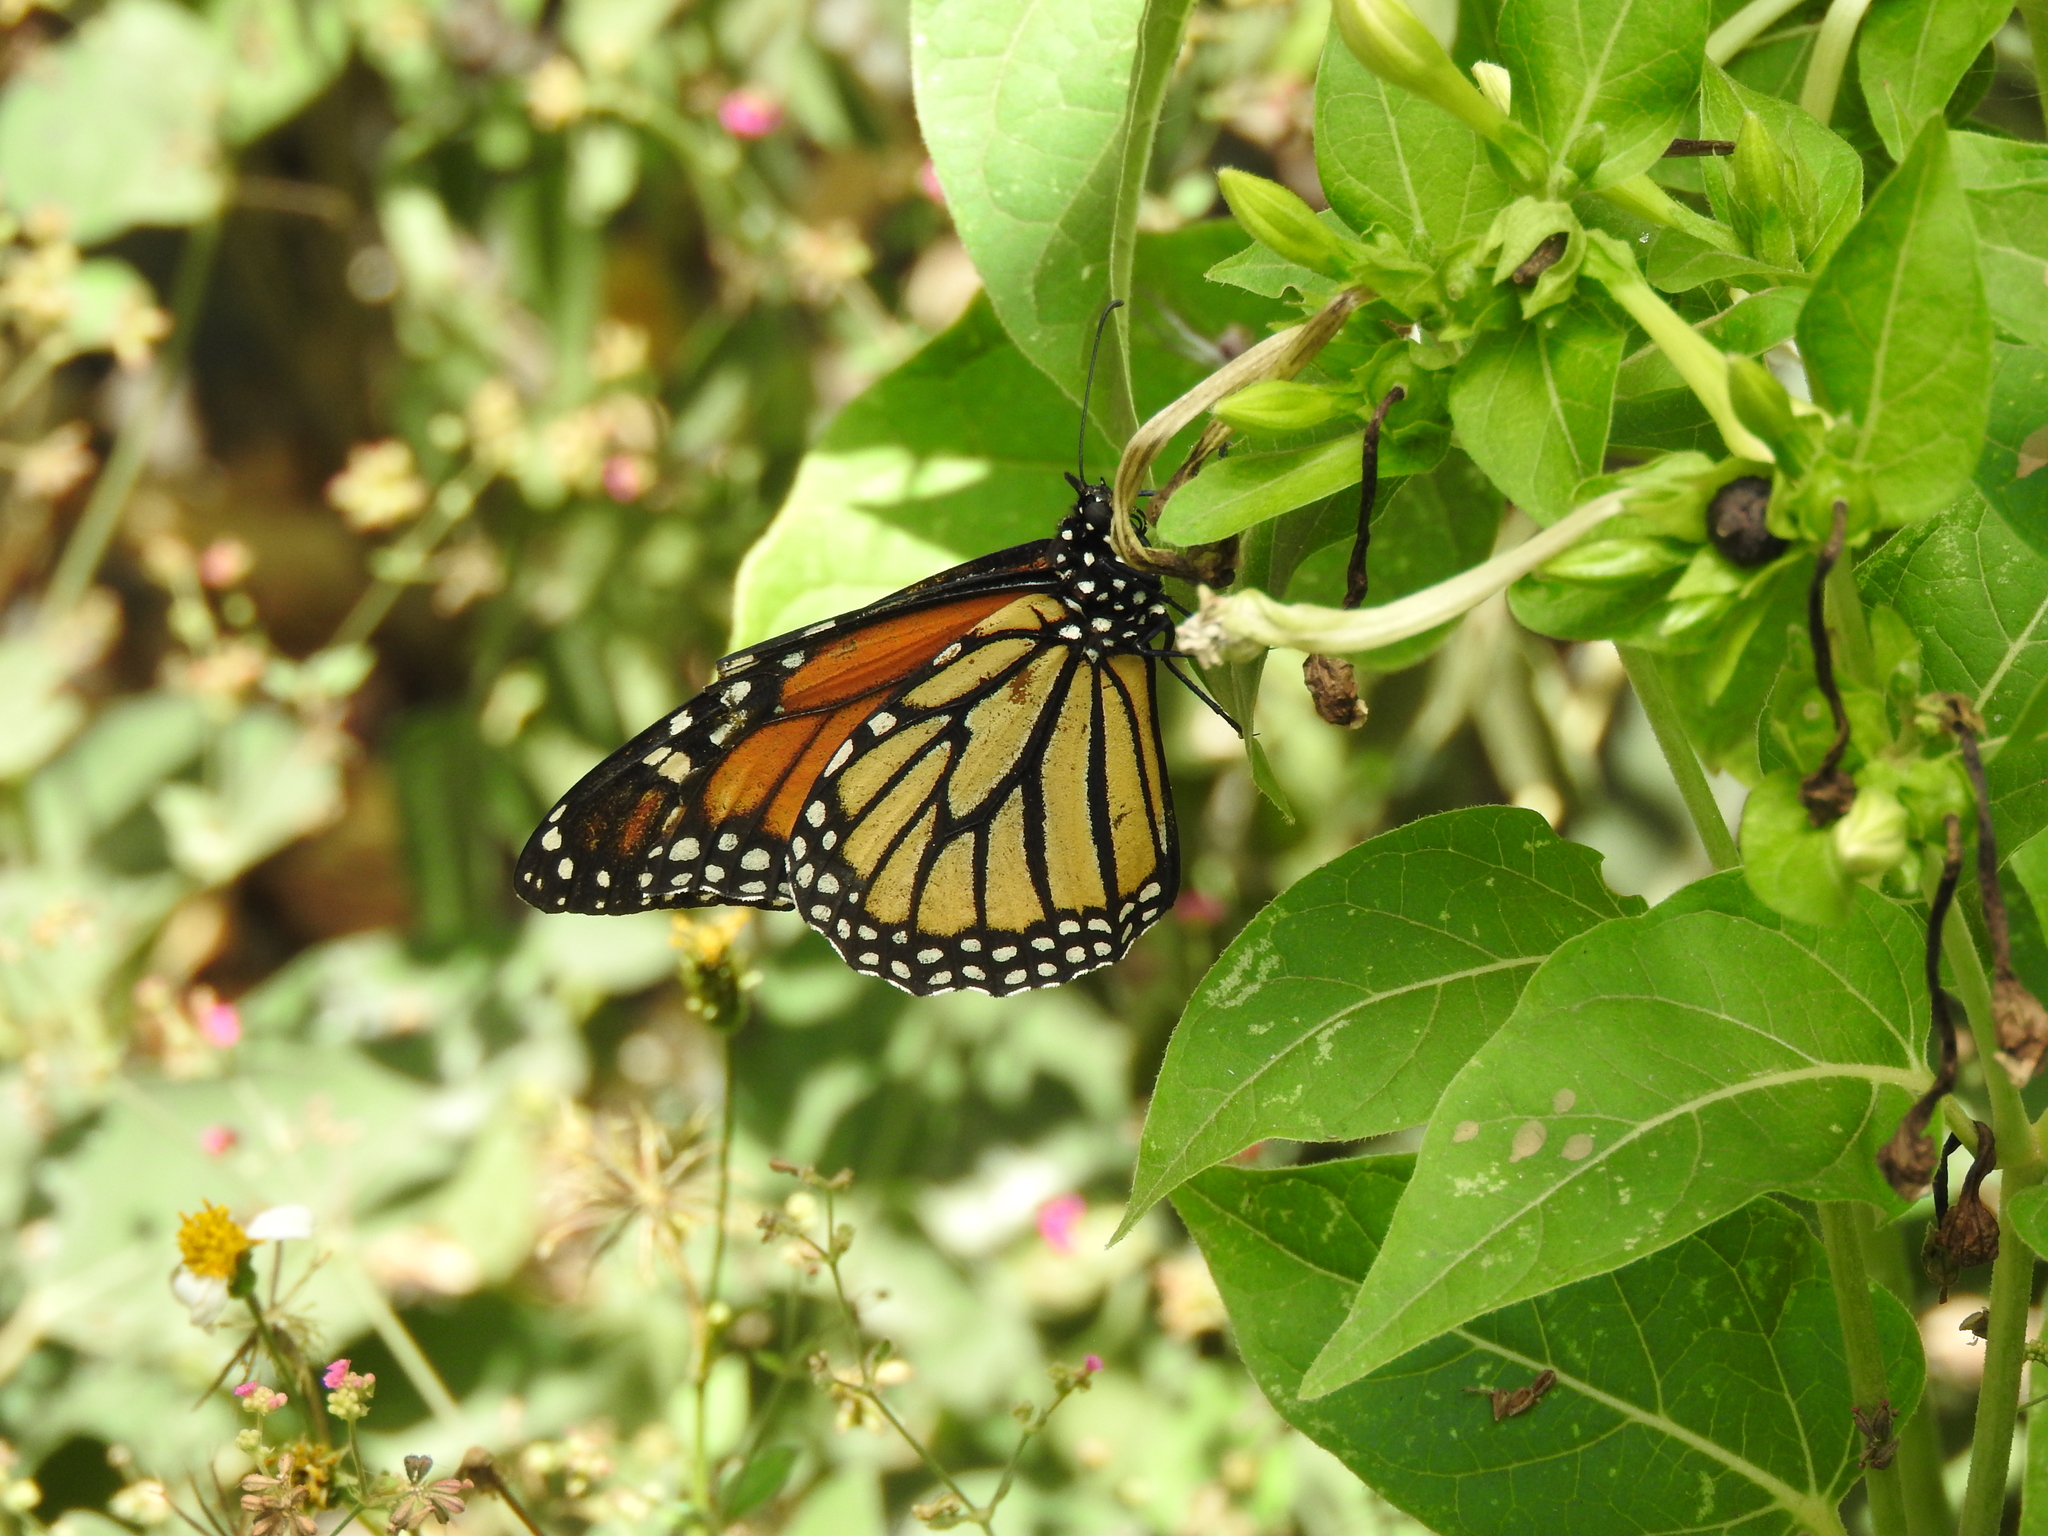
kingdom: Animalia
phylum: Arthropoda
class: Insecta
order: Lepidoptera
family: Nymphalidae
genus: Danaus
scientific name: Danaus plexippus
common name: Monarch
